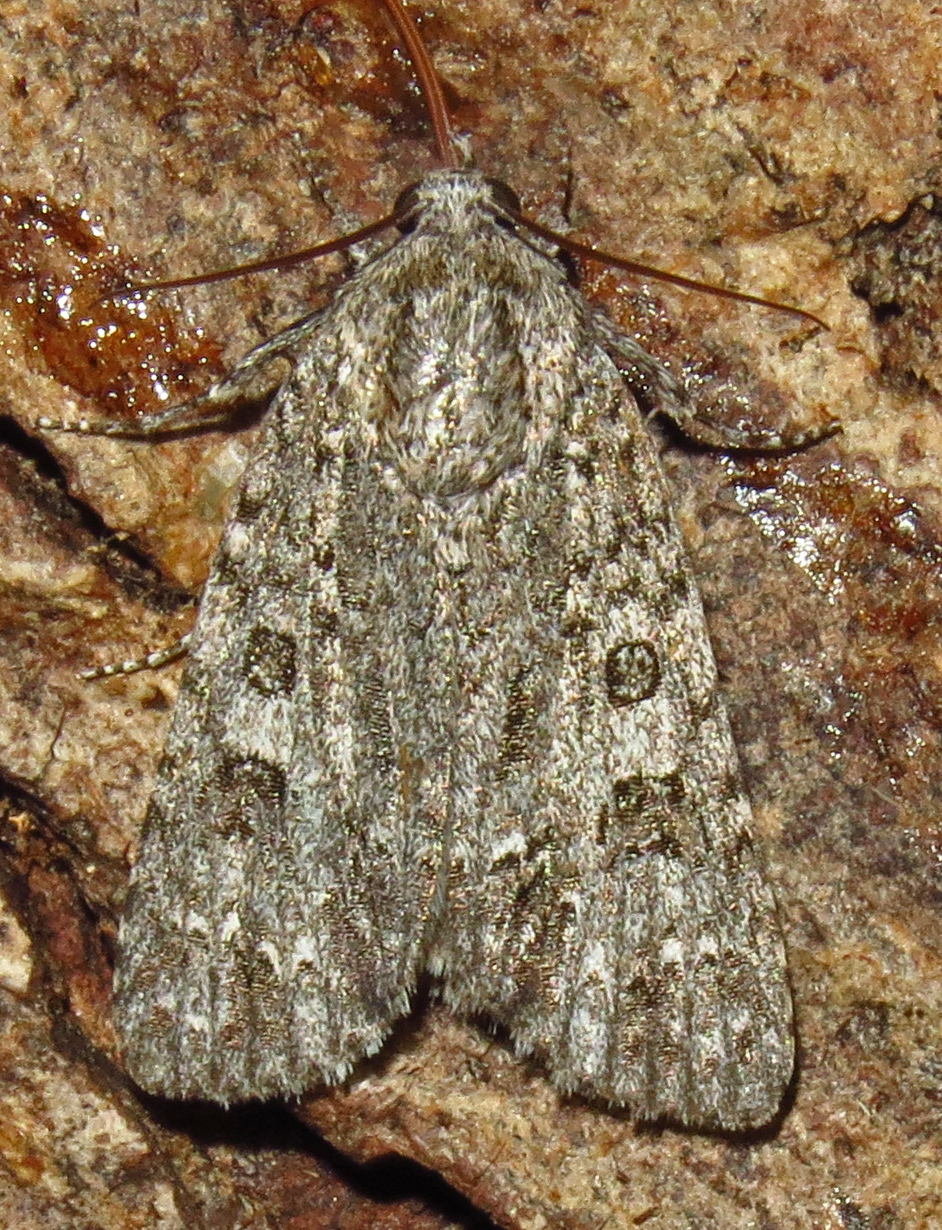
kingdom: Animalia
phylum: Arthropoda
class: Insecta
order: Lepidoptera
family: Noctuidae
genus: Acronicta
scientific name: Acronicta ovata
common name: Epauleted oak dagger
